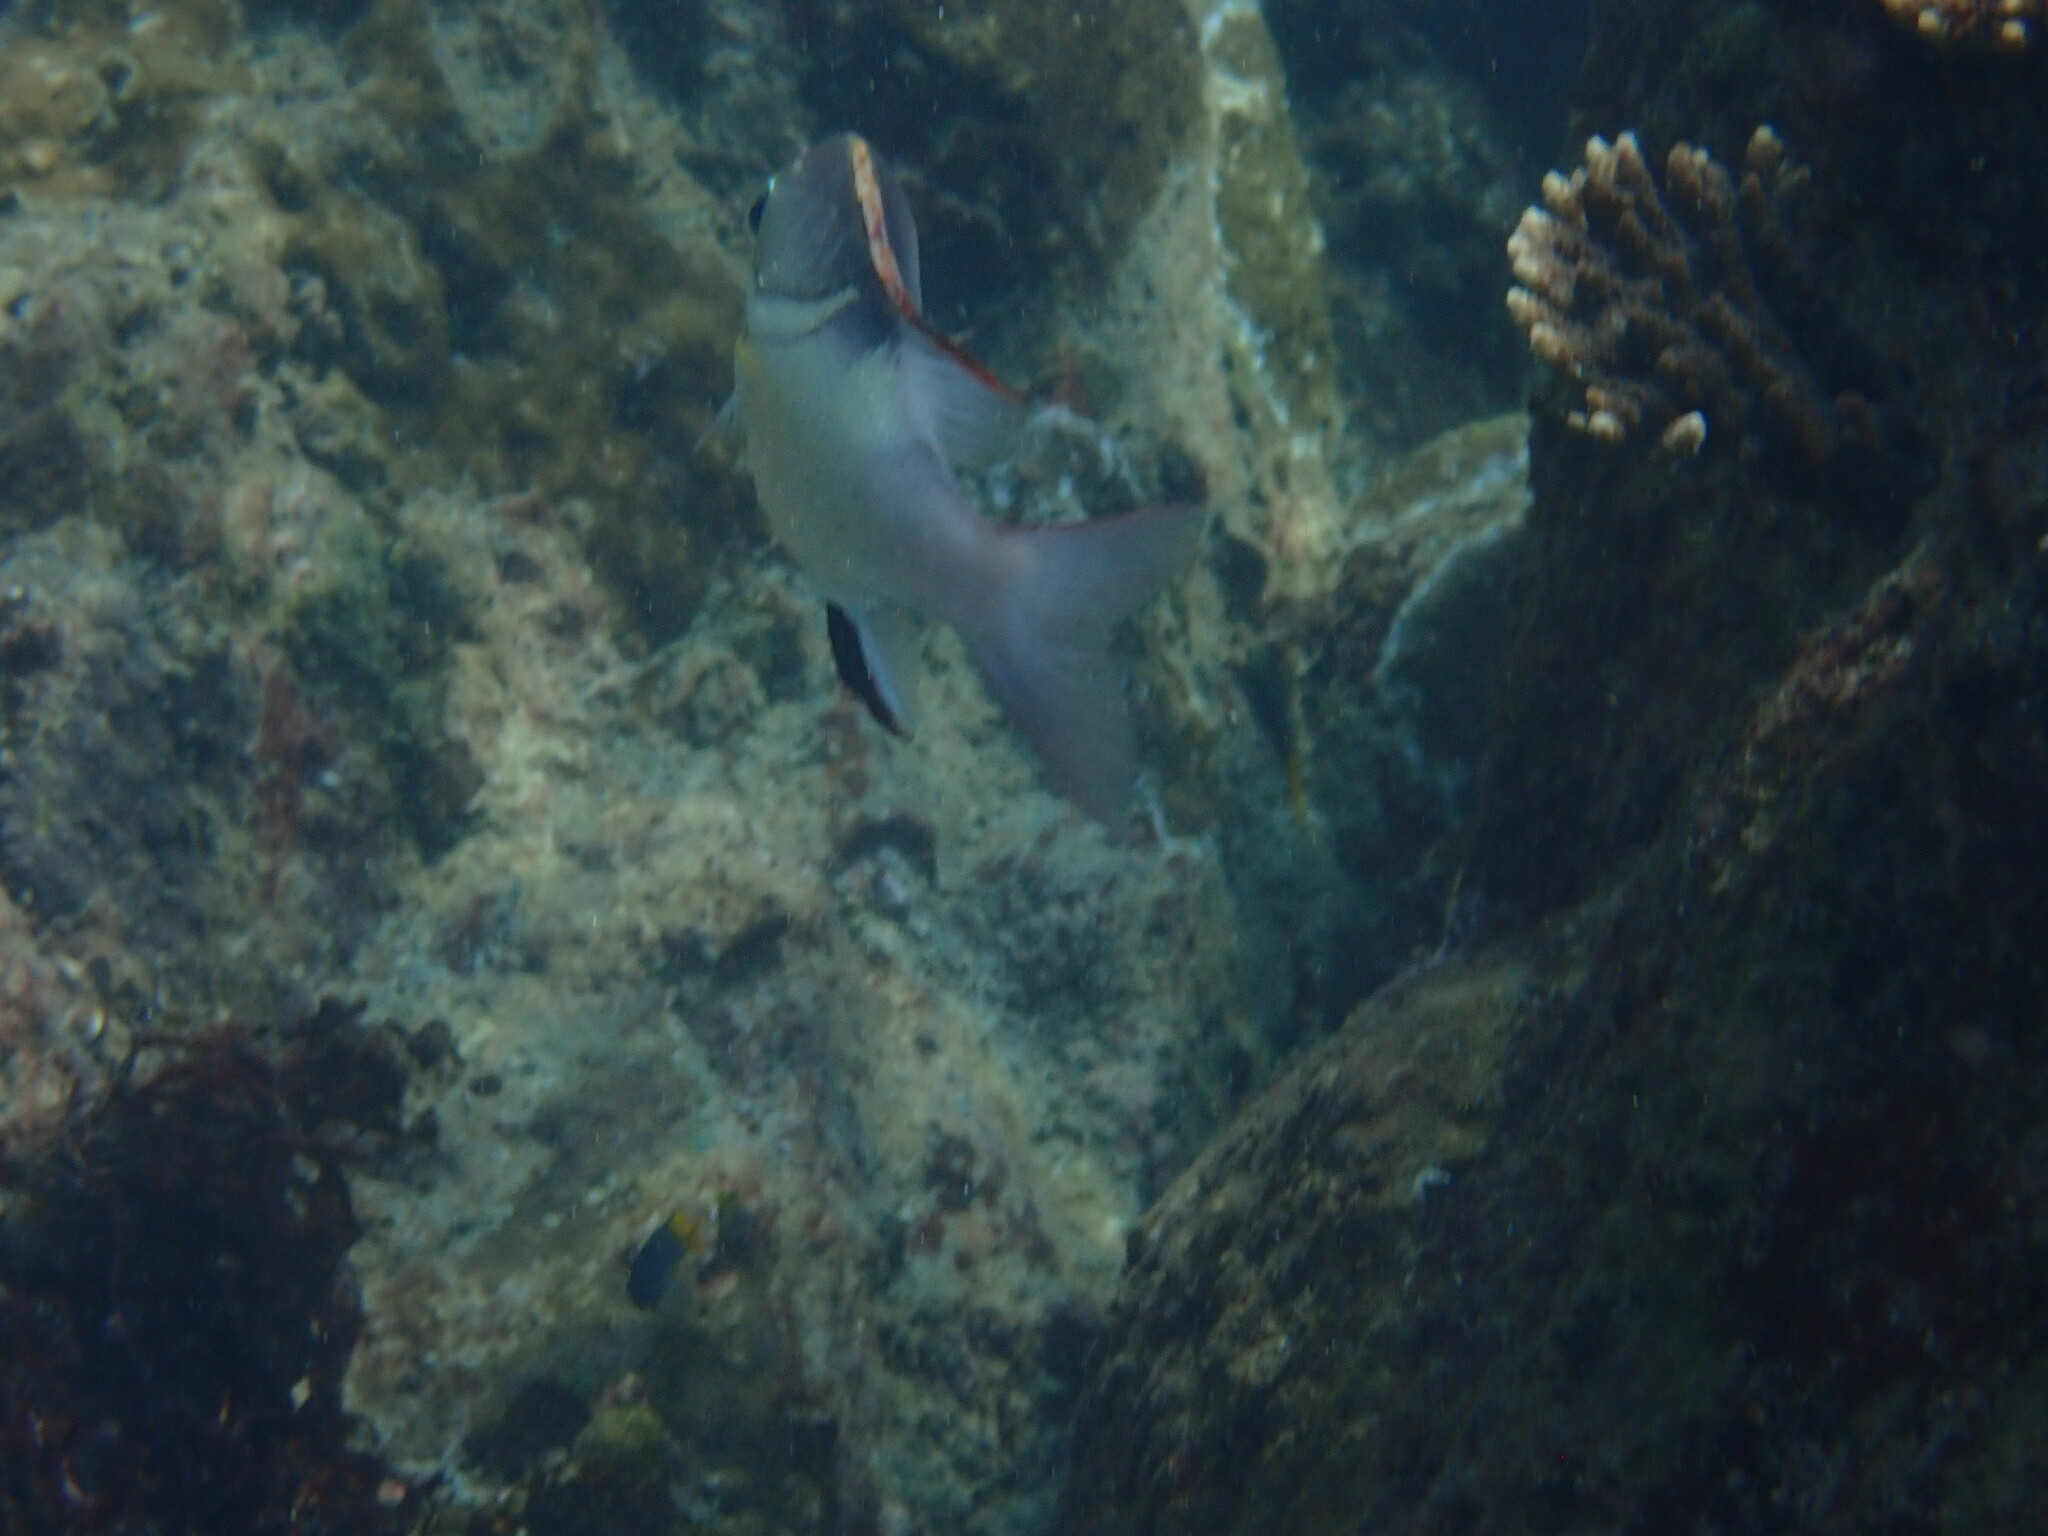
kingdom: Animalia
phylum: Chordata
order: Perciformes
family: Nemipteridae
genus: Scolopsis
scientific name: Scolopsis bilineata
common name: Two-lined monocle bream
